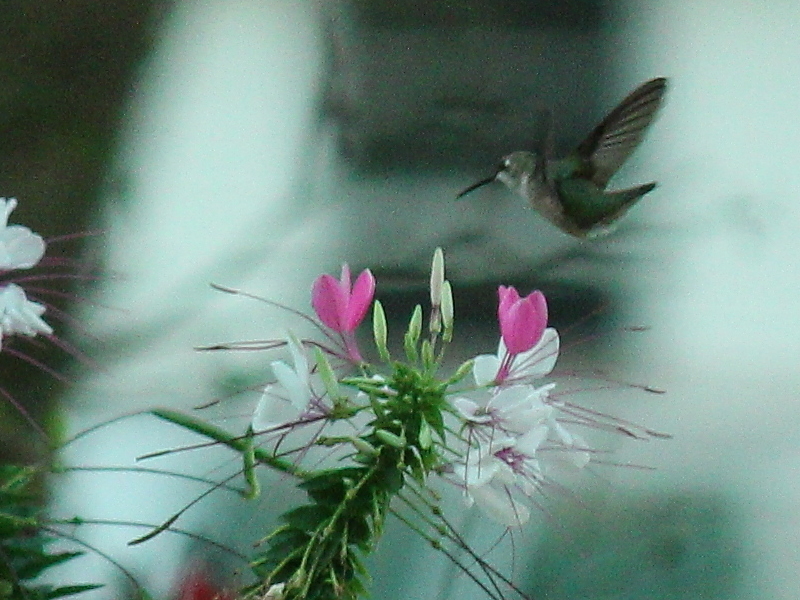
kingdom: Animalia
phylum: Chordata
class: Aves
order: Apodiformes
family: Trochilidae
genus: Archilochus
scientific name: Archilochus colubris
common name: Ruby-throated hummingbird
